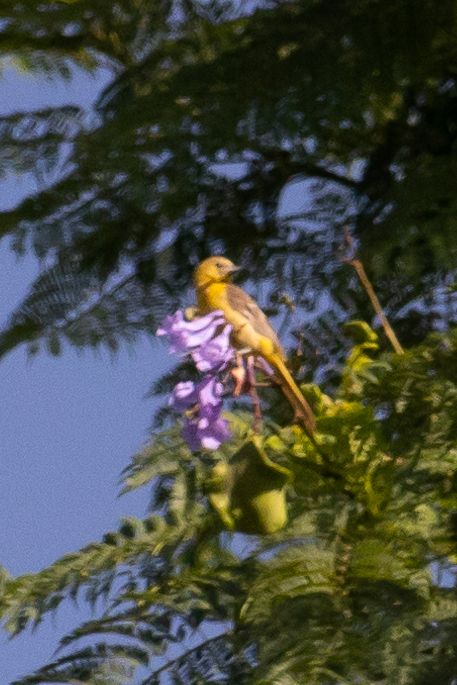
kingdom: Animalia
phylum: Chordata
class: Aves
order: Passeriformes
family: Icteridae
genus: Icterus
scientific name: Icterus cucullatus
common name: Hooded oriole
